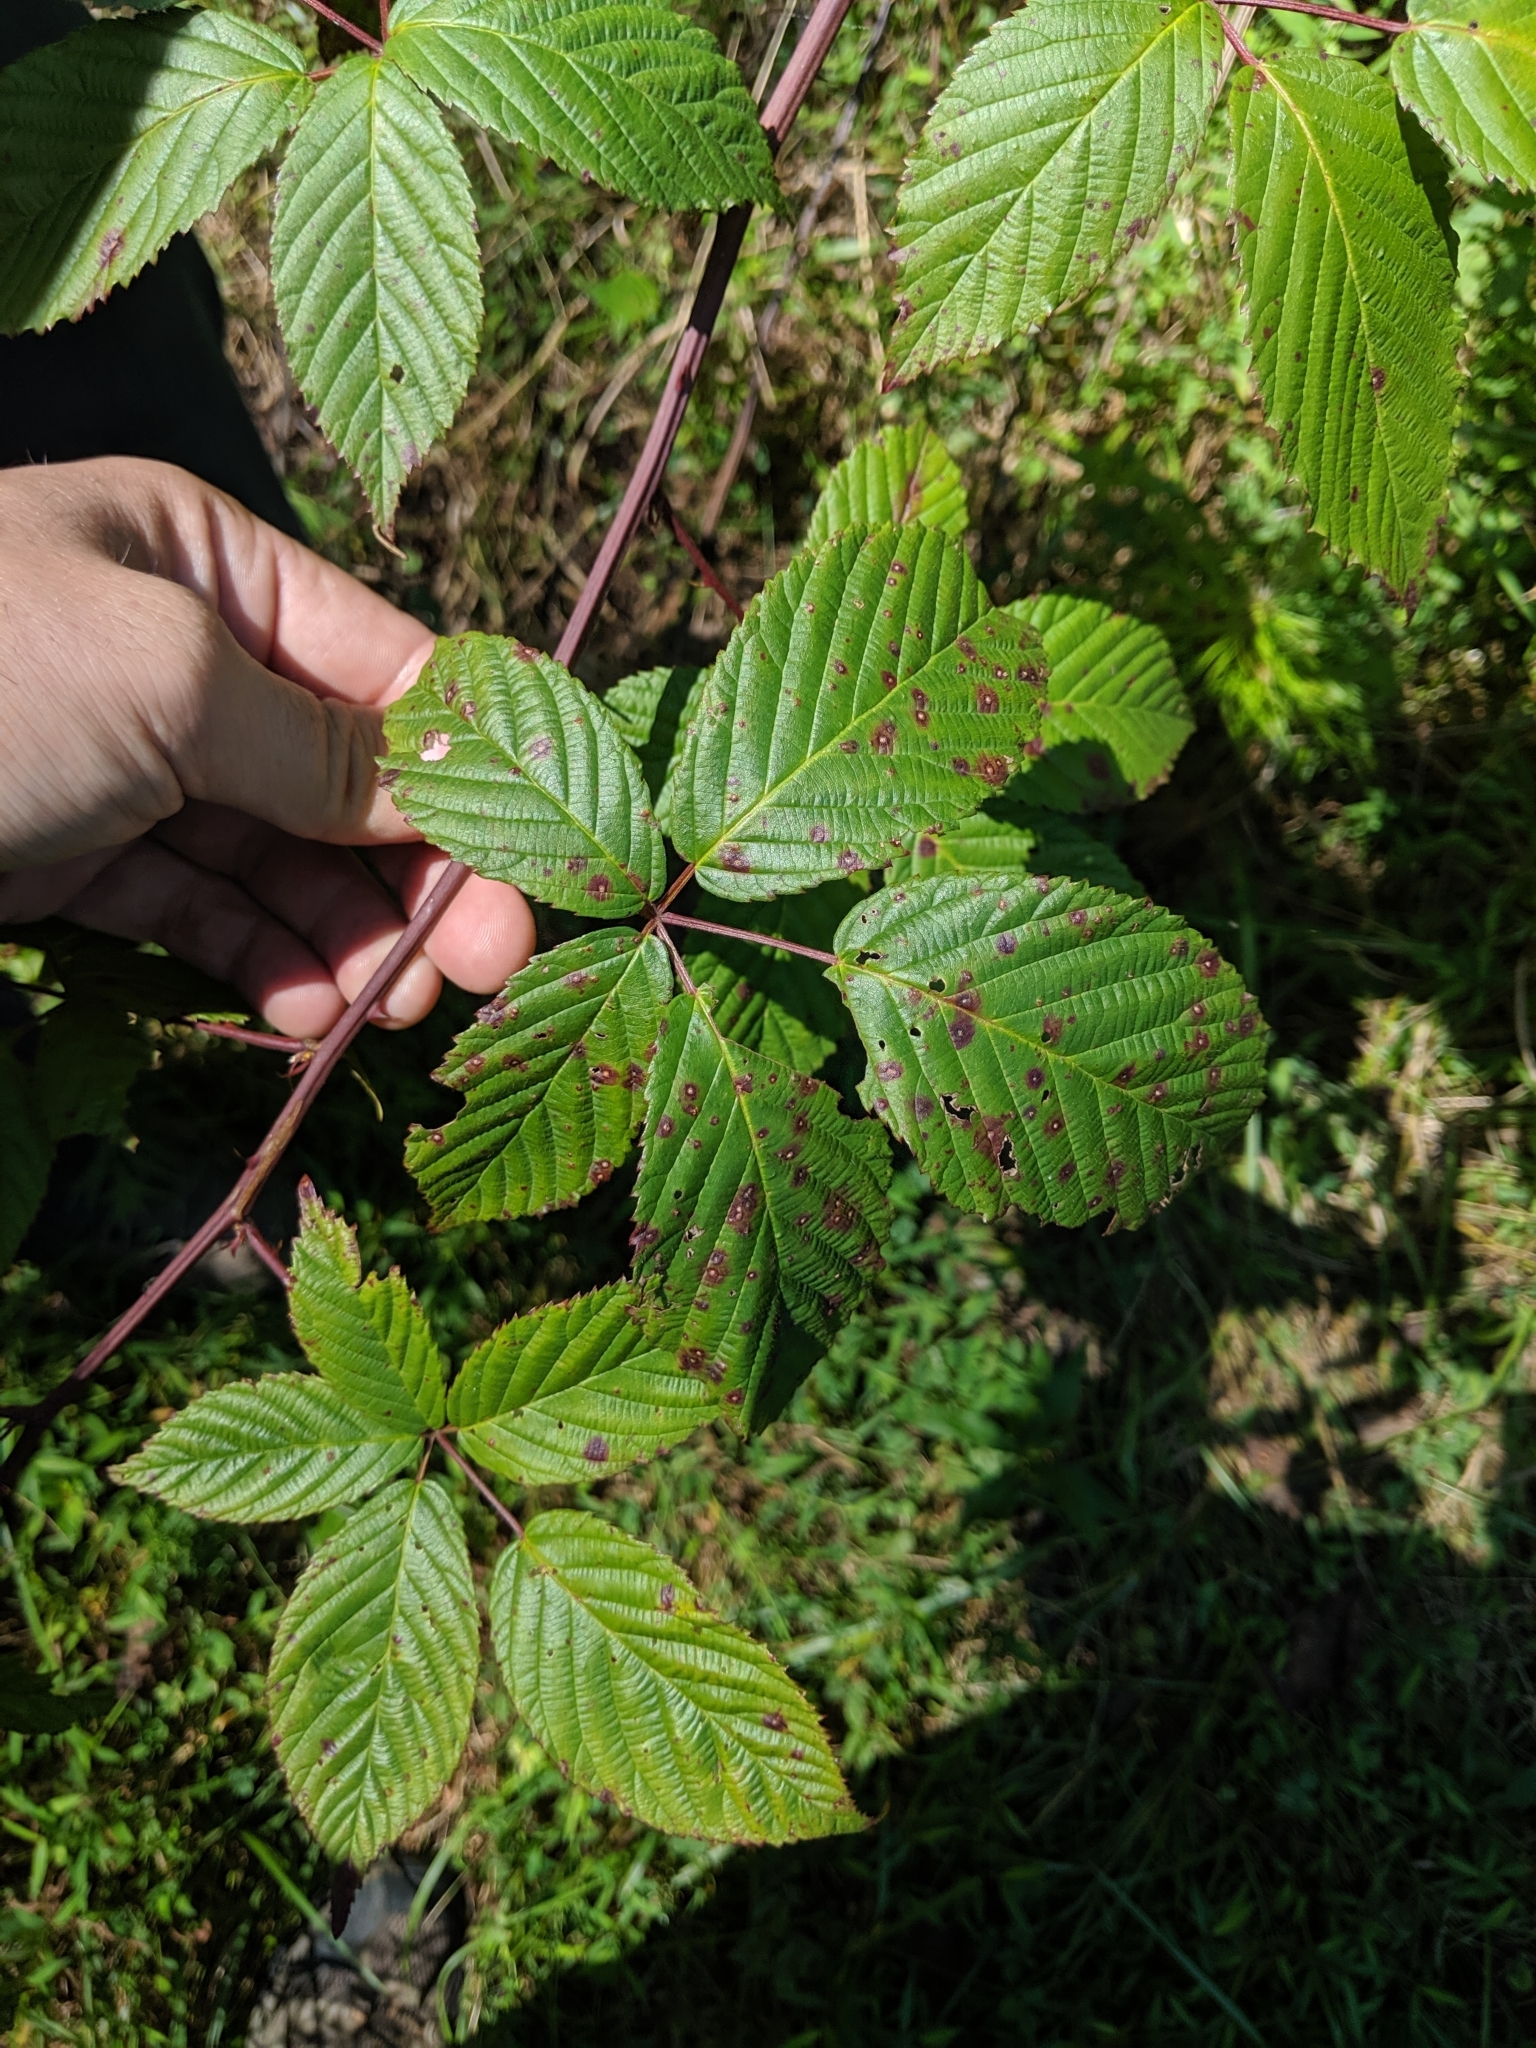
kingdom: Plantae
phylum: Tracheophyta
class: Magnoliopsida
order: Rosales
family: Rosaceae
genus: Rubus
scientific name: Rubus allegheniensis
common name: Allegheny blackberry
